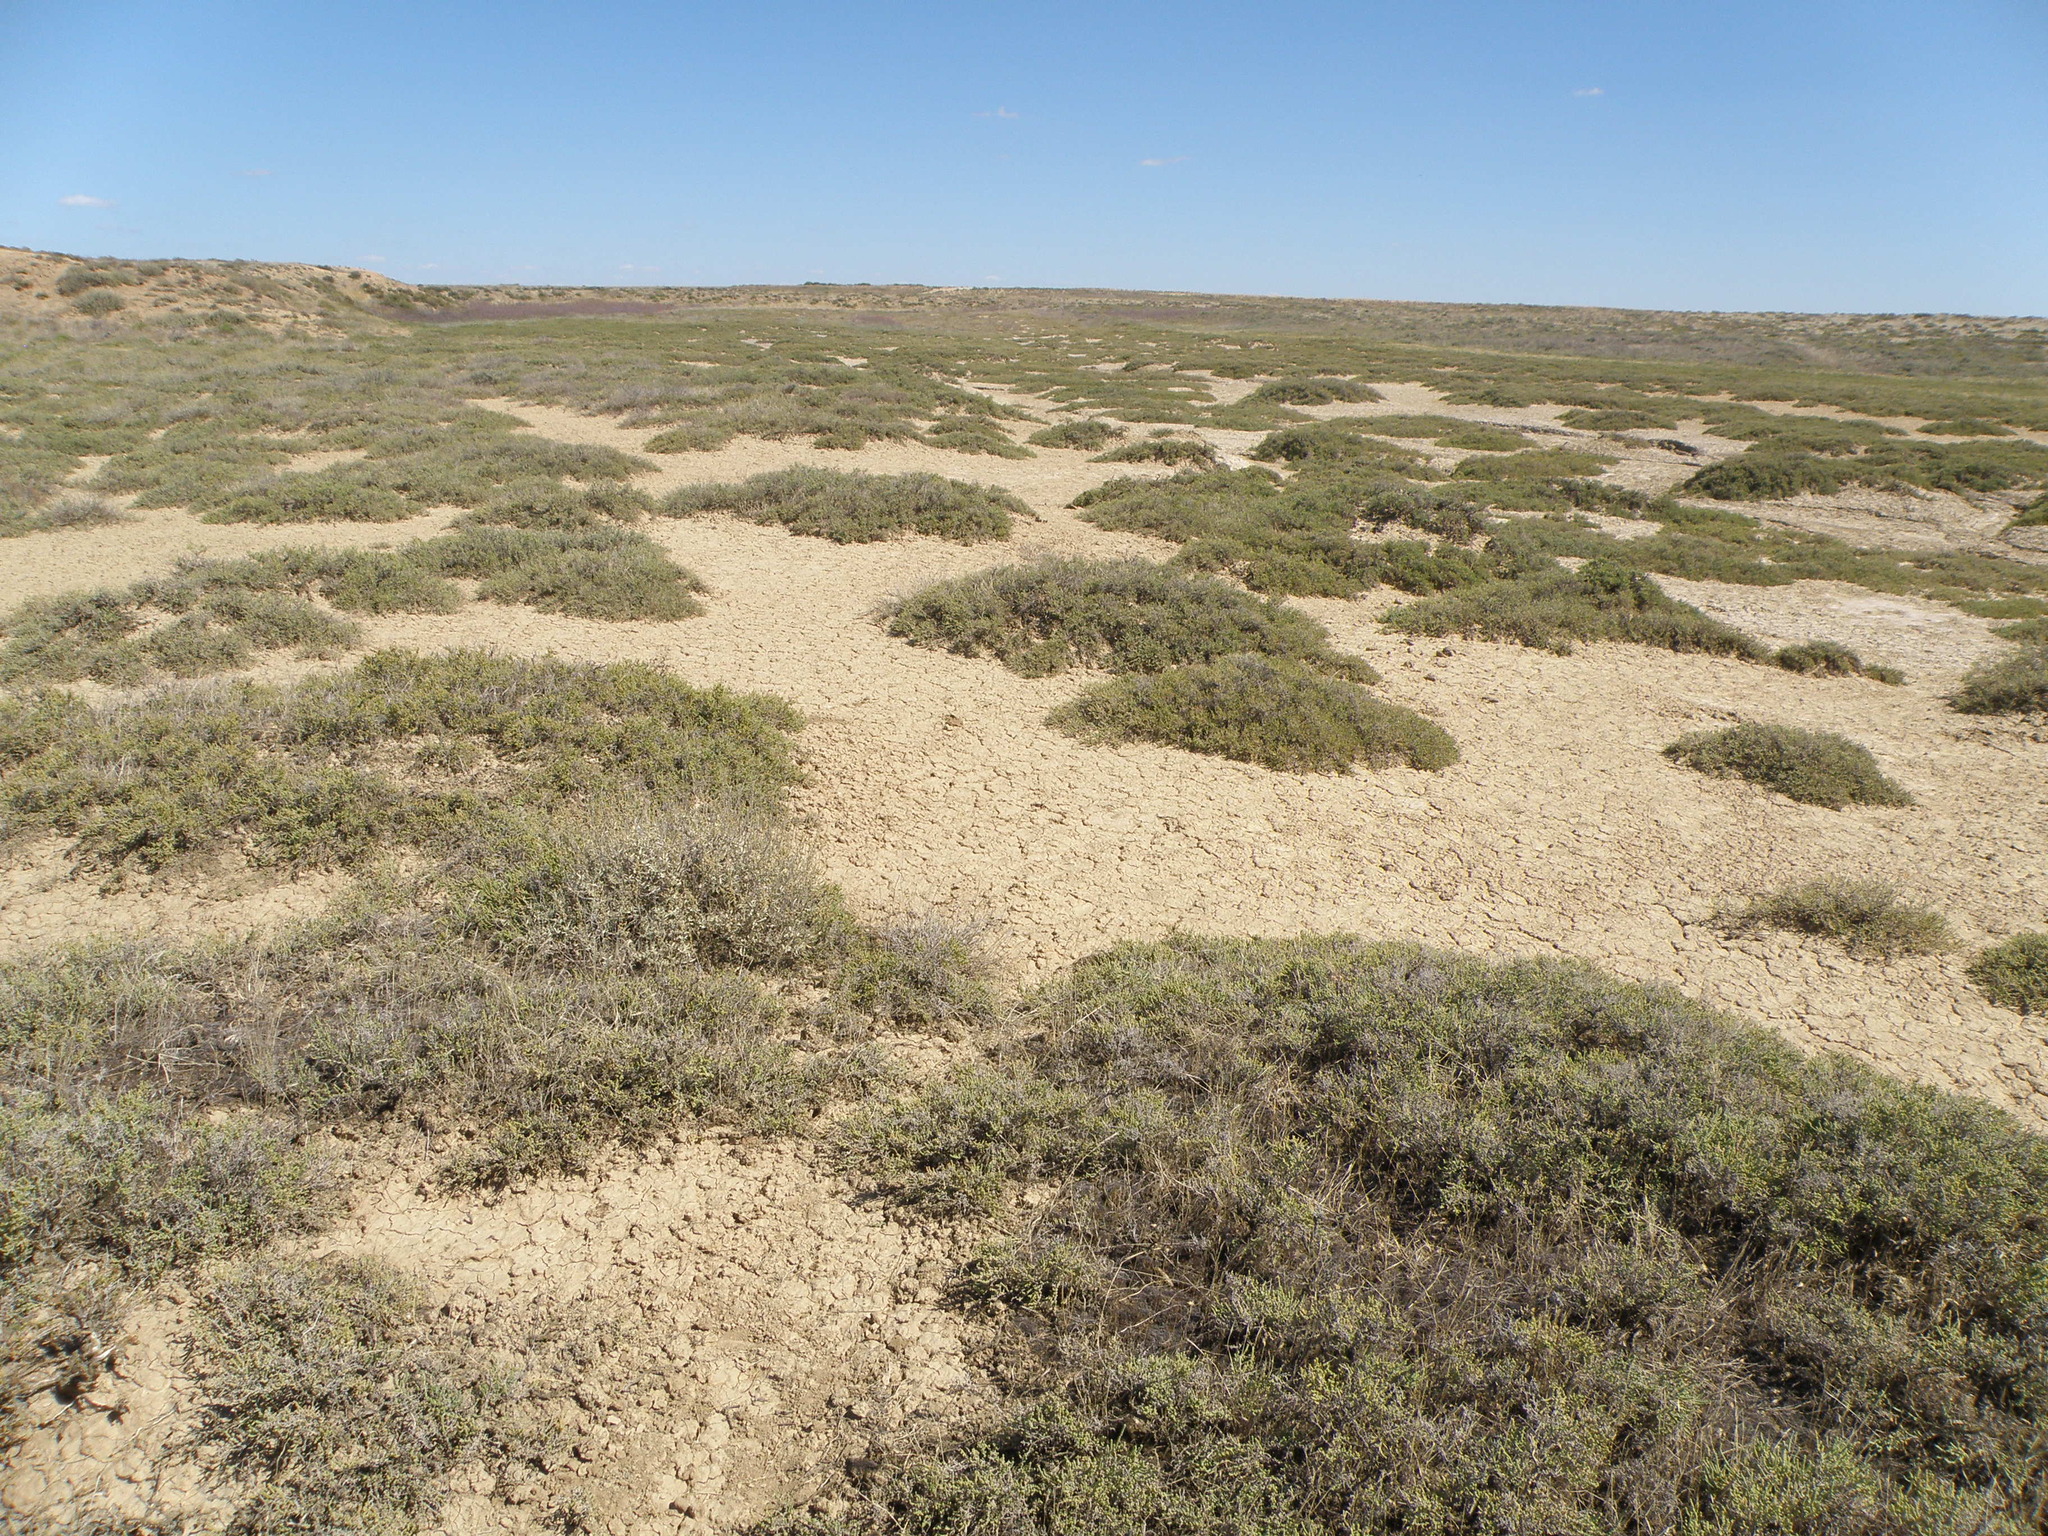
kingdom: Plantae
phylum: Tracheophyta
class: Magnoliopsida
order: Caryophyllales
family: Amaranthaceae
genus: Halocnemum
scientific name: Halocnemum strobilaceum
